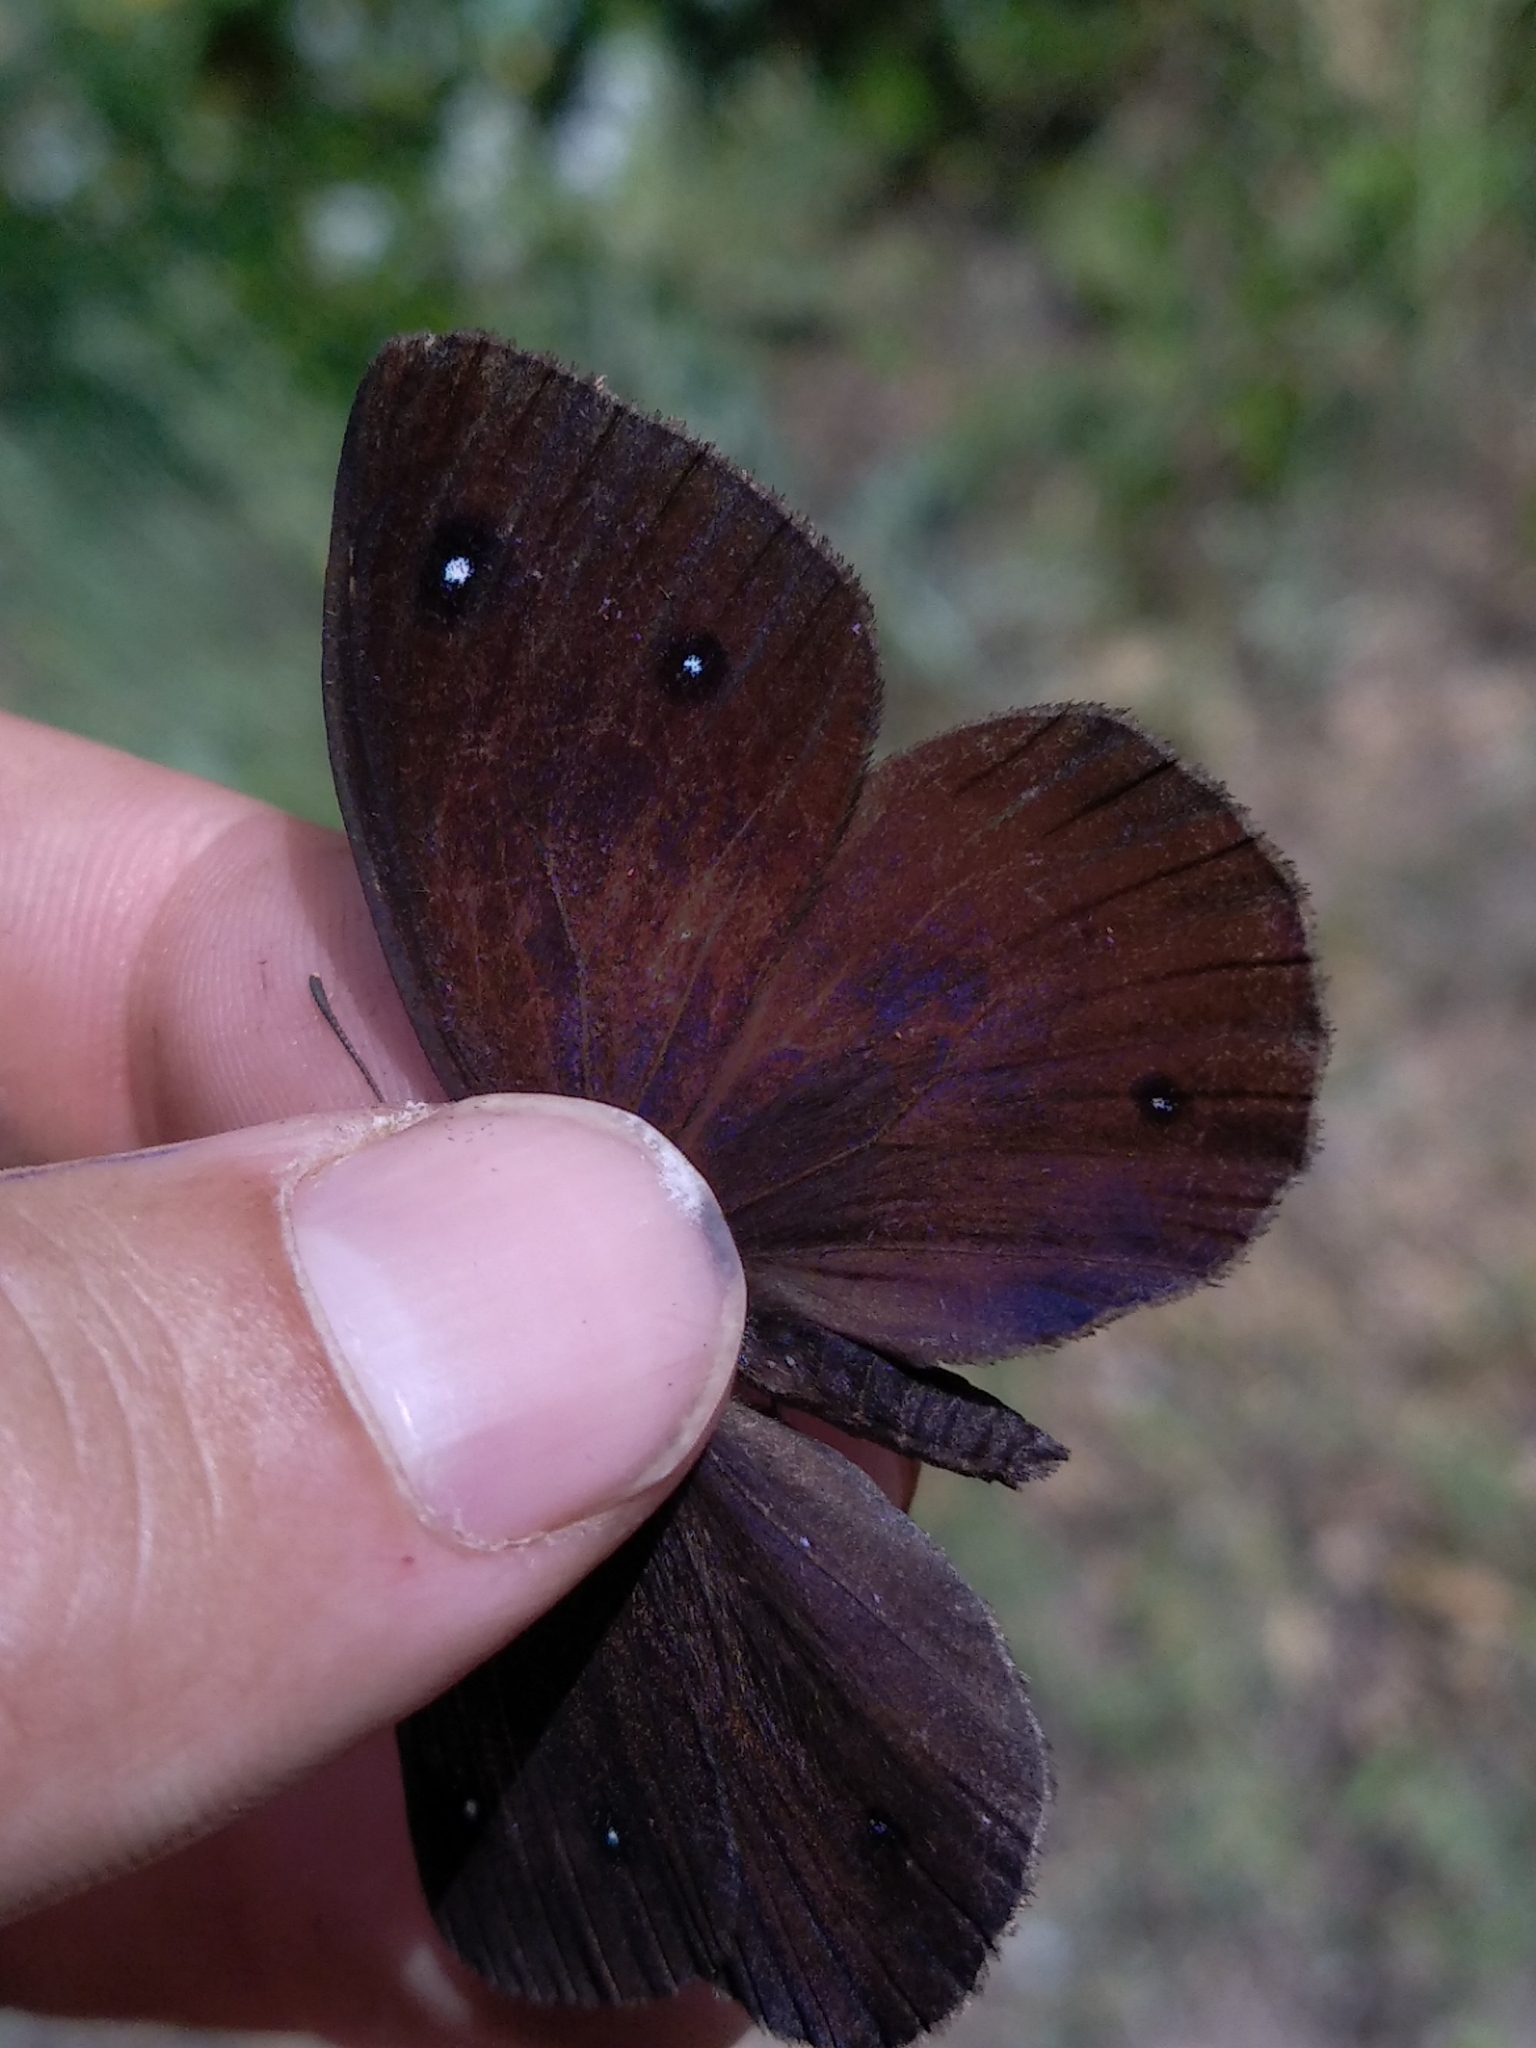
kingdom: Animalia
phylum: Arthropoda
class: Insecta
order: Lepidoptera
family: Nymphalidae
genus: Satyrus
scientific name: Satyrus ferula
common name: Great sooty satyr
